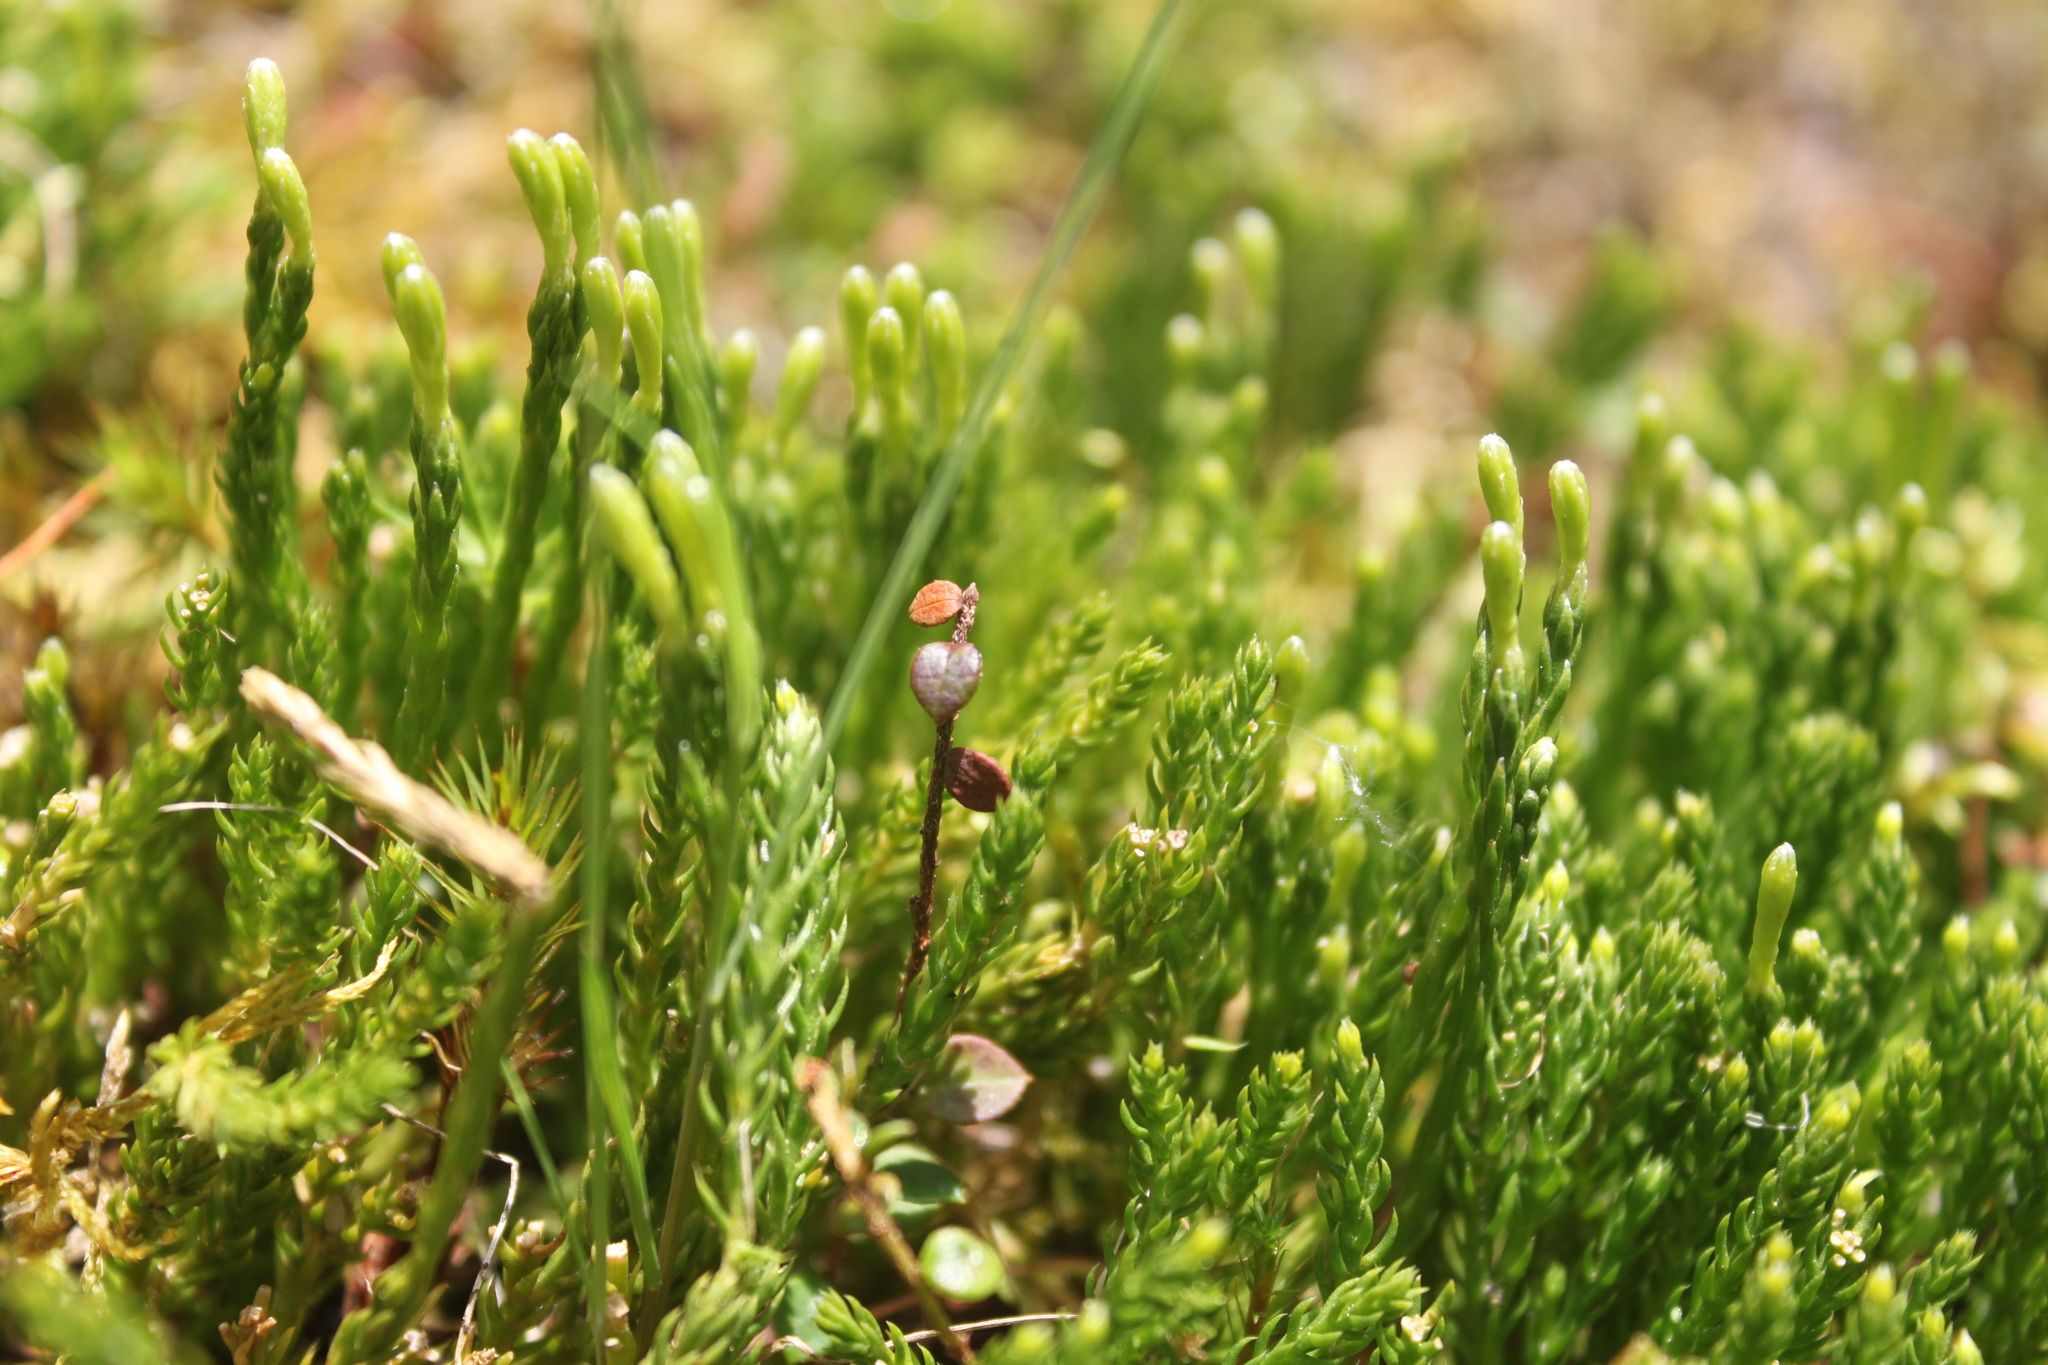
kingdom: Plantae
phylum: Tracheophyta
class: Lycopodiopsida
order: Lycopodiales
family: Lycopodiaceae
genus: Diphasiastrum
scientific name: Diphasiastrum sabinifolium
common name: Juniper clubmoss
